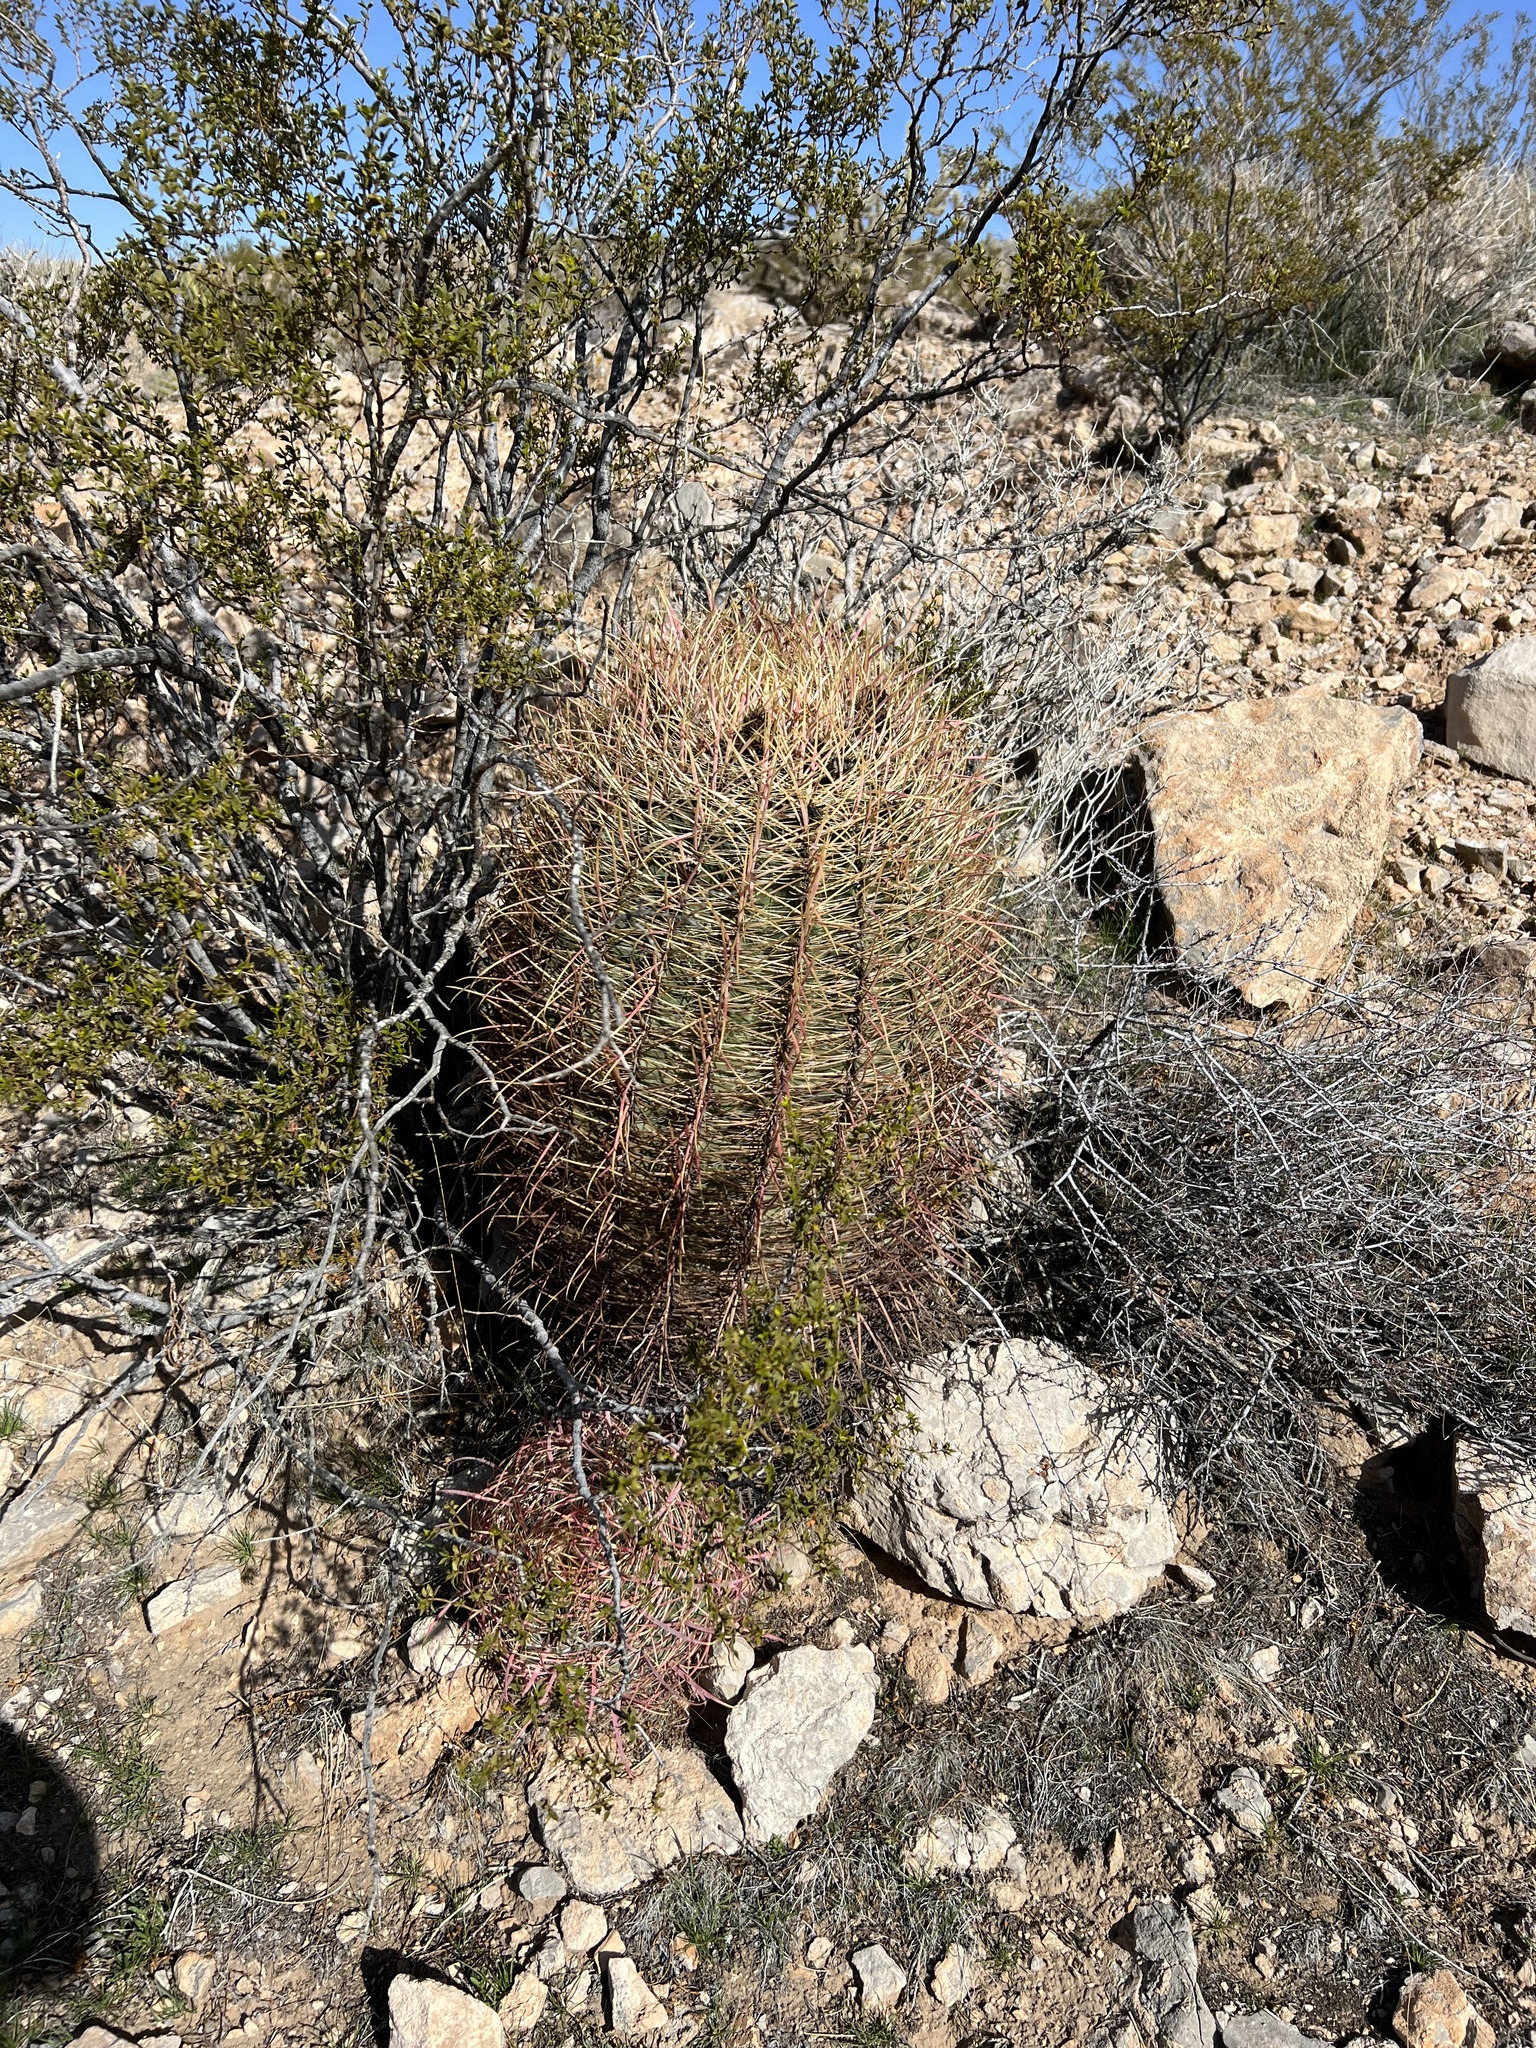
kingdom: Plantae
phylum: Tracheophyta
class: Magnoliopsida
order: Caryophyllales
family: Cactaceae
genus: Ferocactus
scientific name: Ferocactus cylindraceus
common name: California barrel cactus
